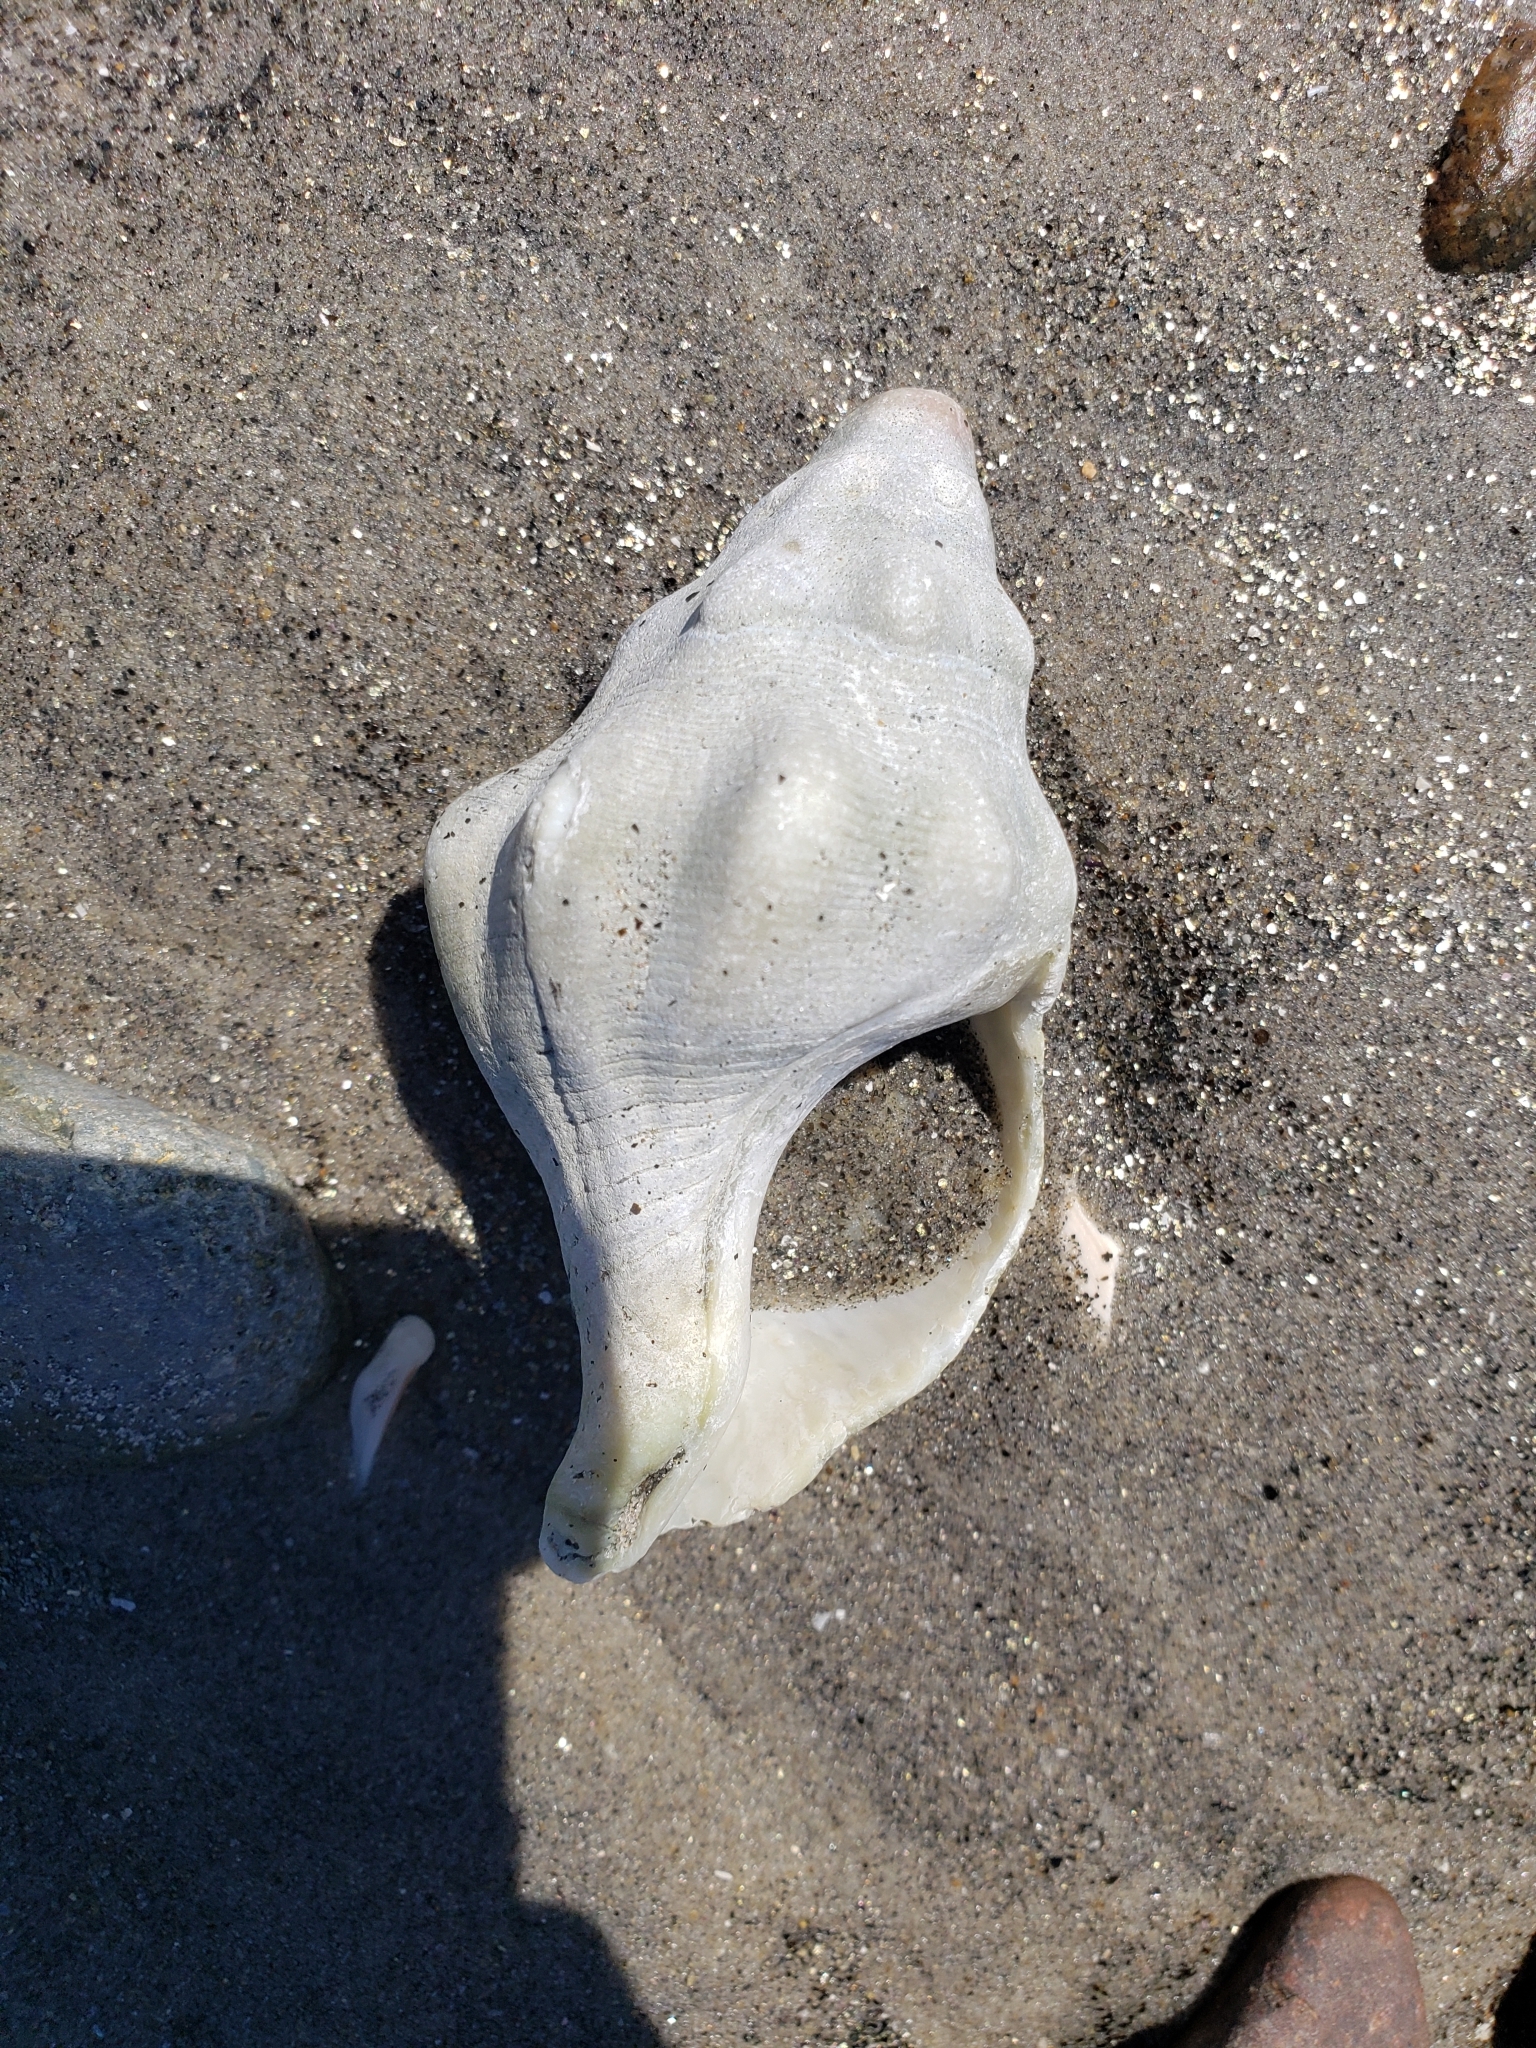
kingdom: Animalia
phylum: Mollusca
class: Gastropoda
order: Neogastropoda
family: Austrosiphonidae
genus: Kelletia
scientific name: Kelletia kelletii
